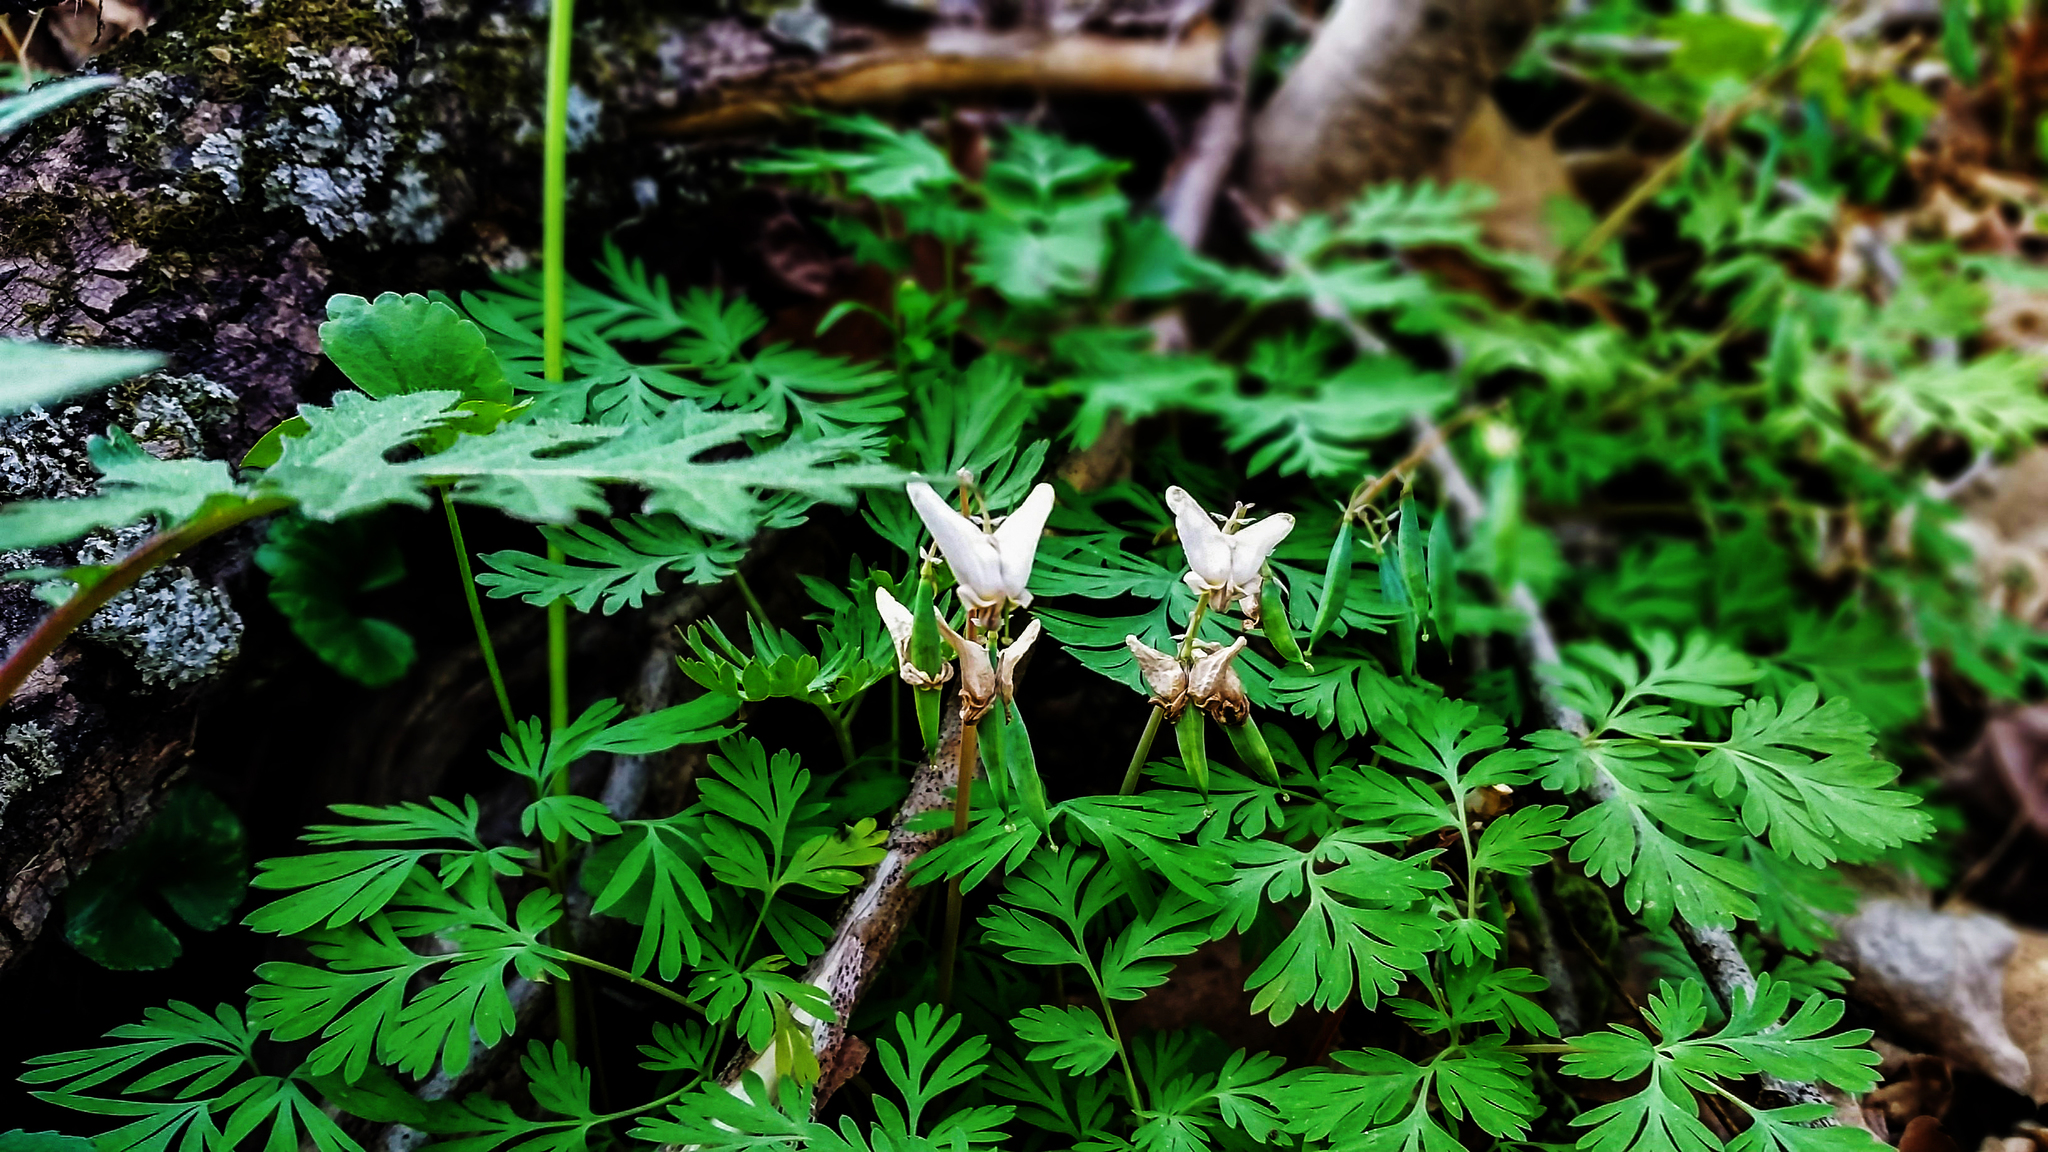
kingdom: Plantae
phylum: Tracheophyta
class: Magnoliopsida
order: Ranunculales
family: Papaveraceae
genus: Dicentra
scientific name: Dicentra cucullaria
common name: Dutchman's breeches
